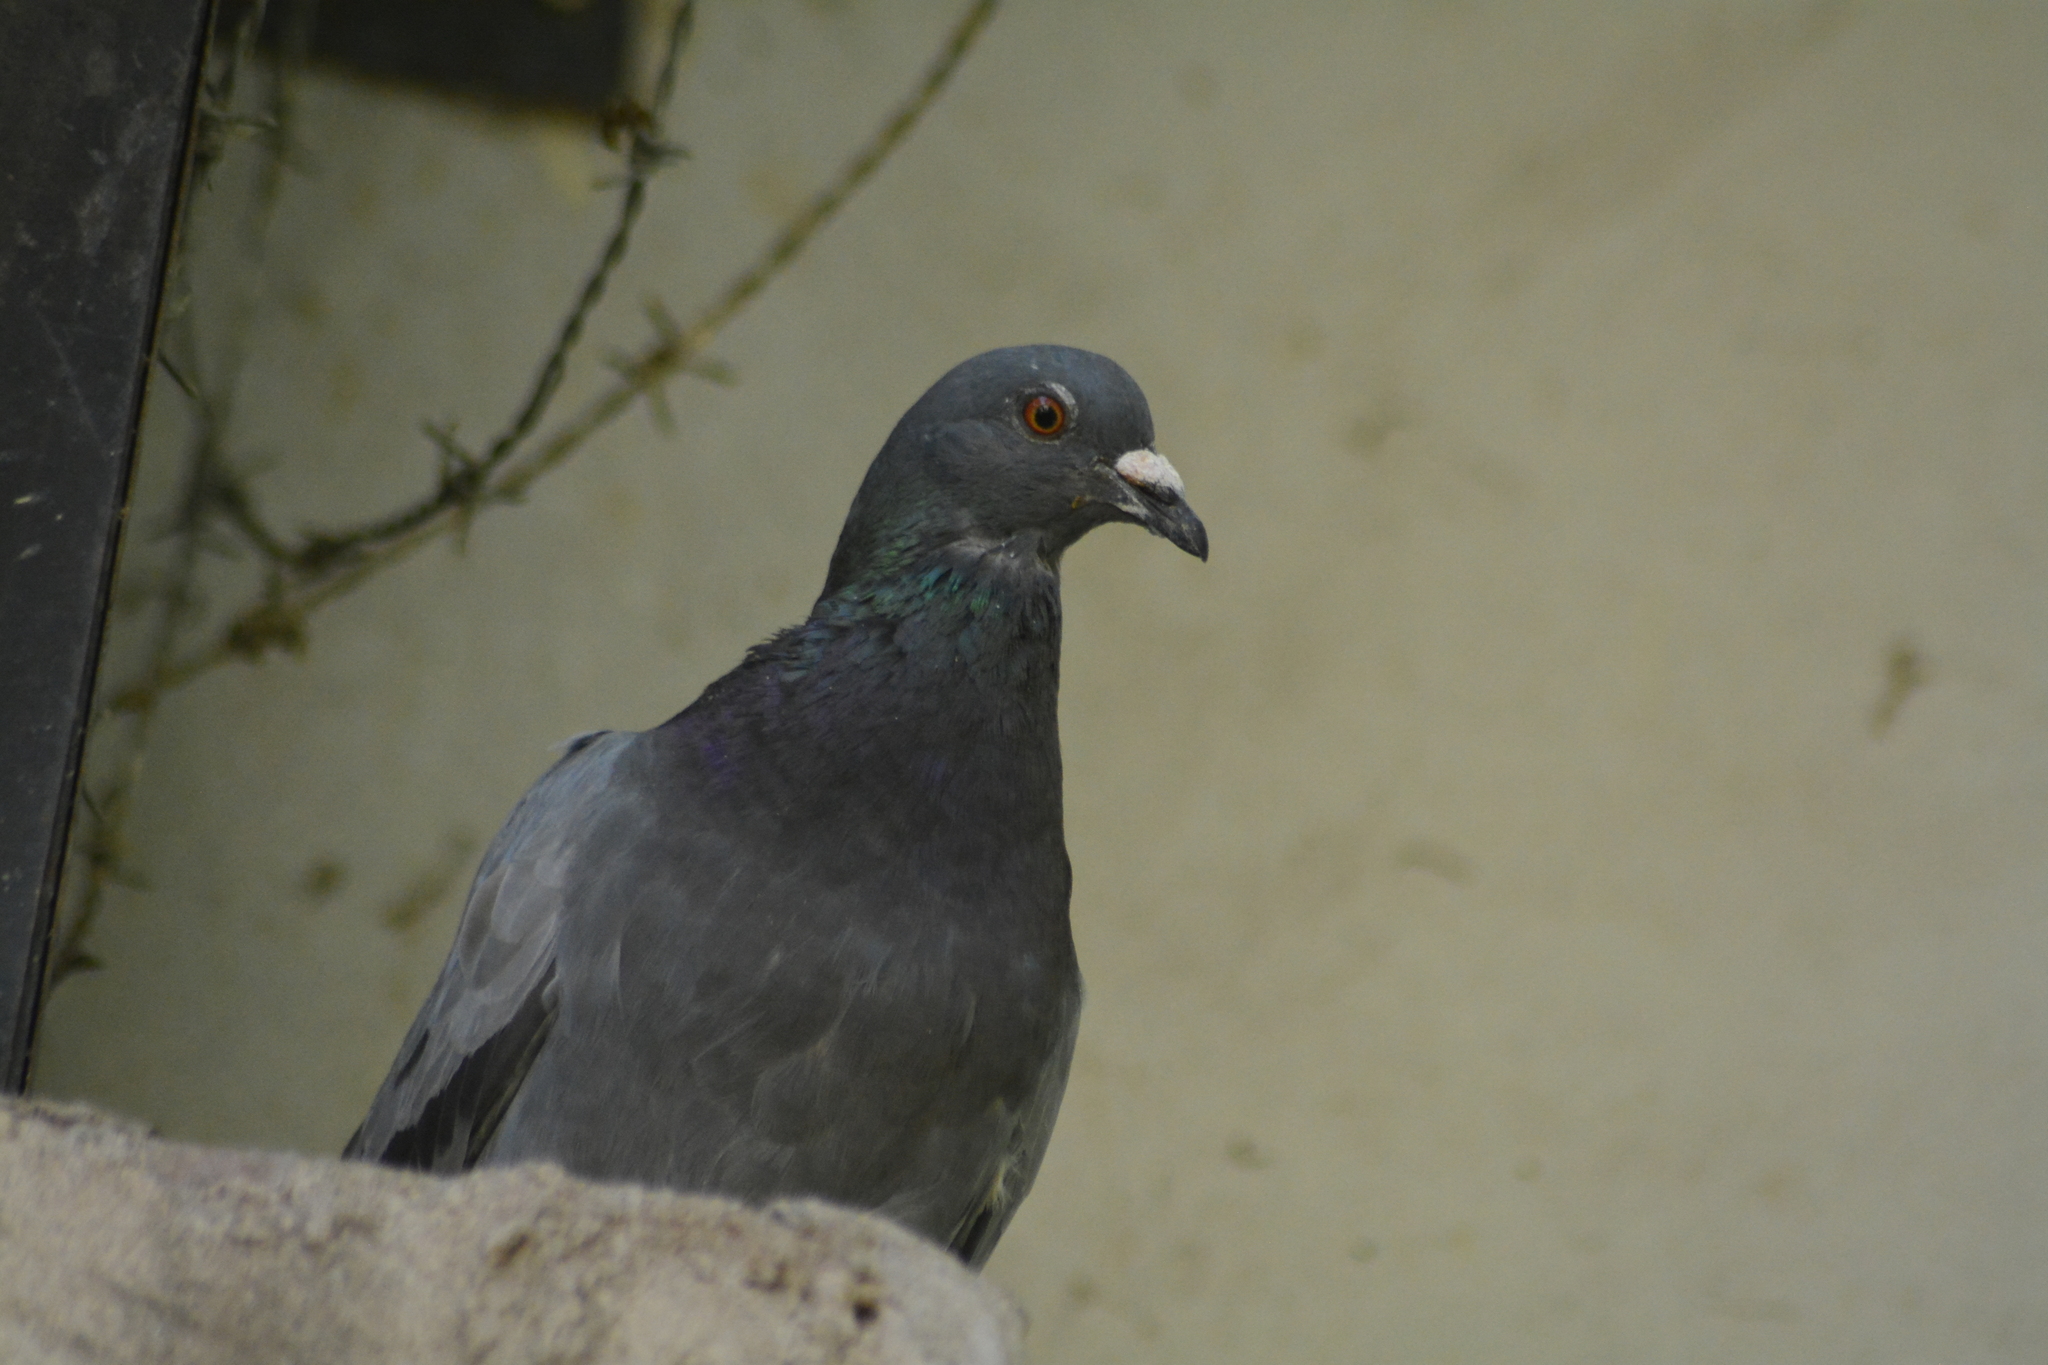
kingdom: Animalia
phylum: Chordata
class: Aves
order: Columbiformes
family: Columbidae
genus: Columba
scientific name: Columba livia
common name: Rock pigeon
